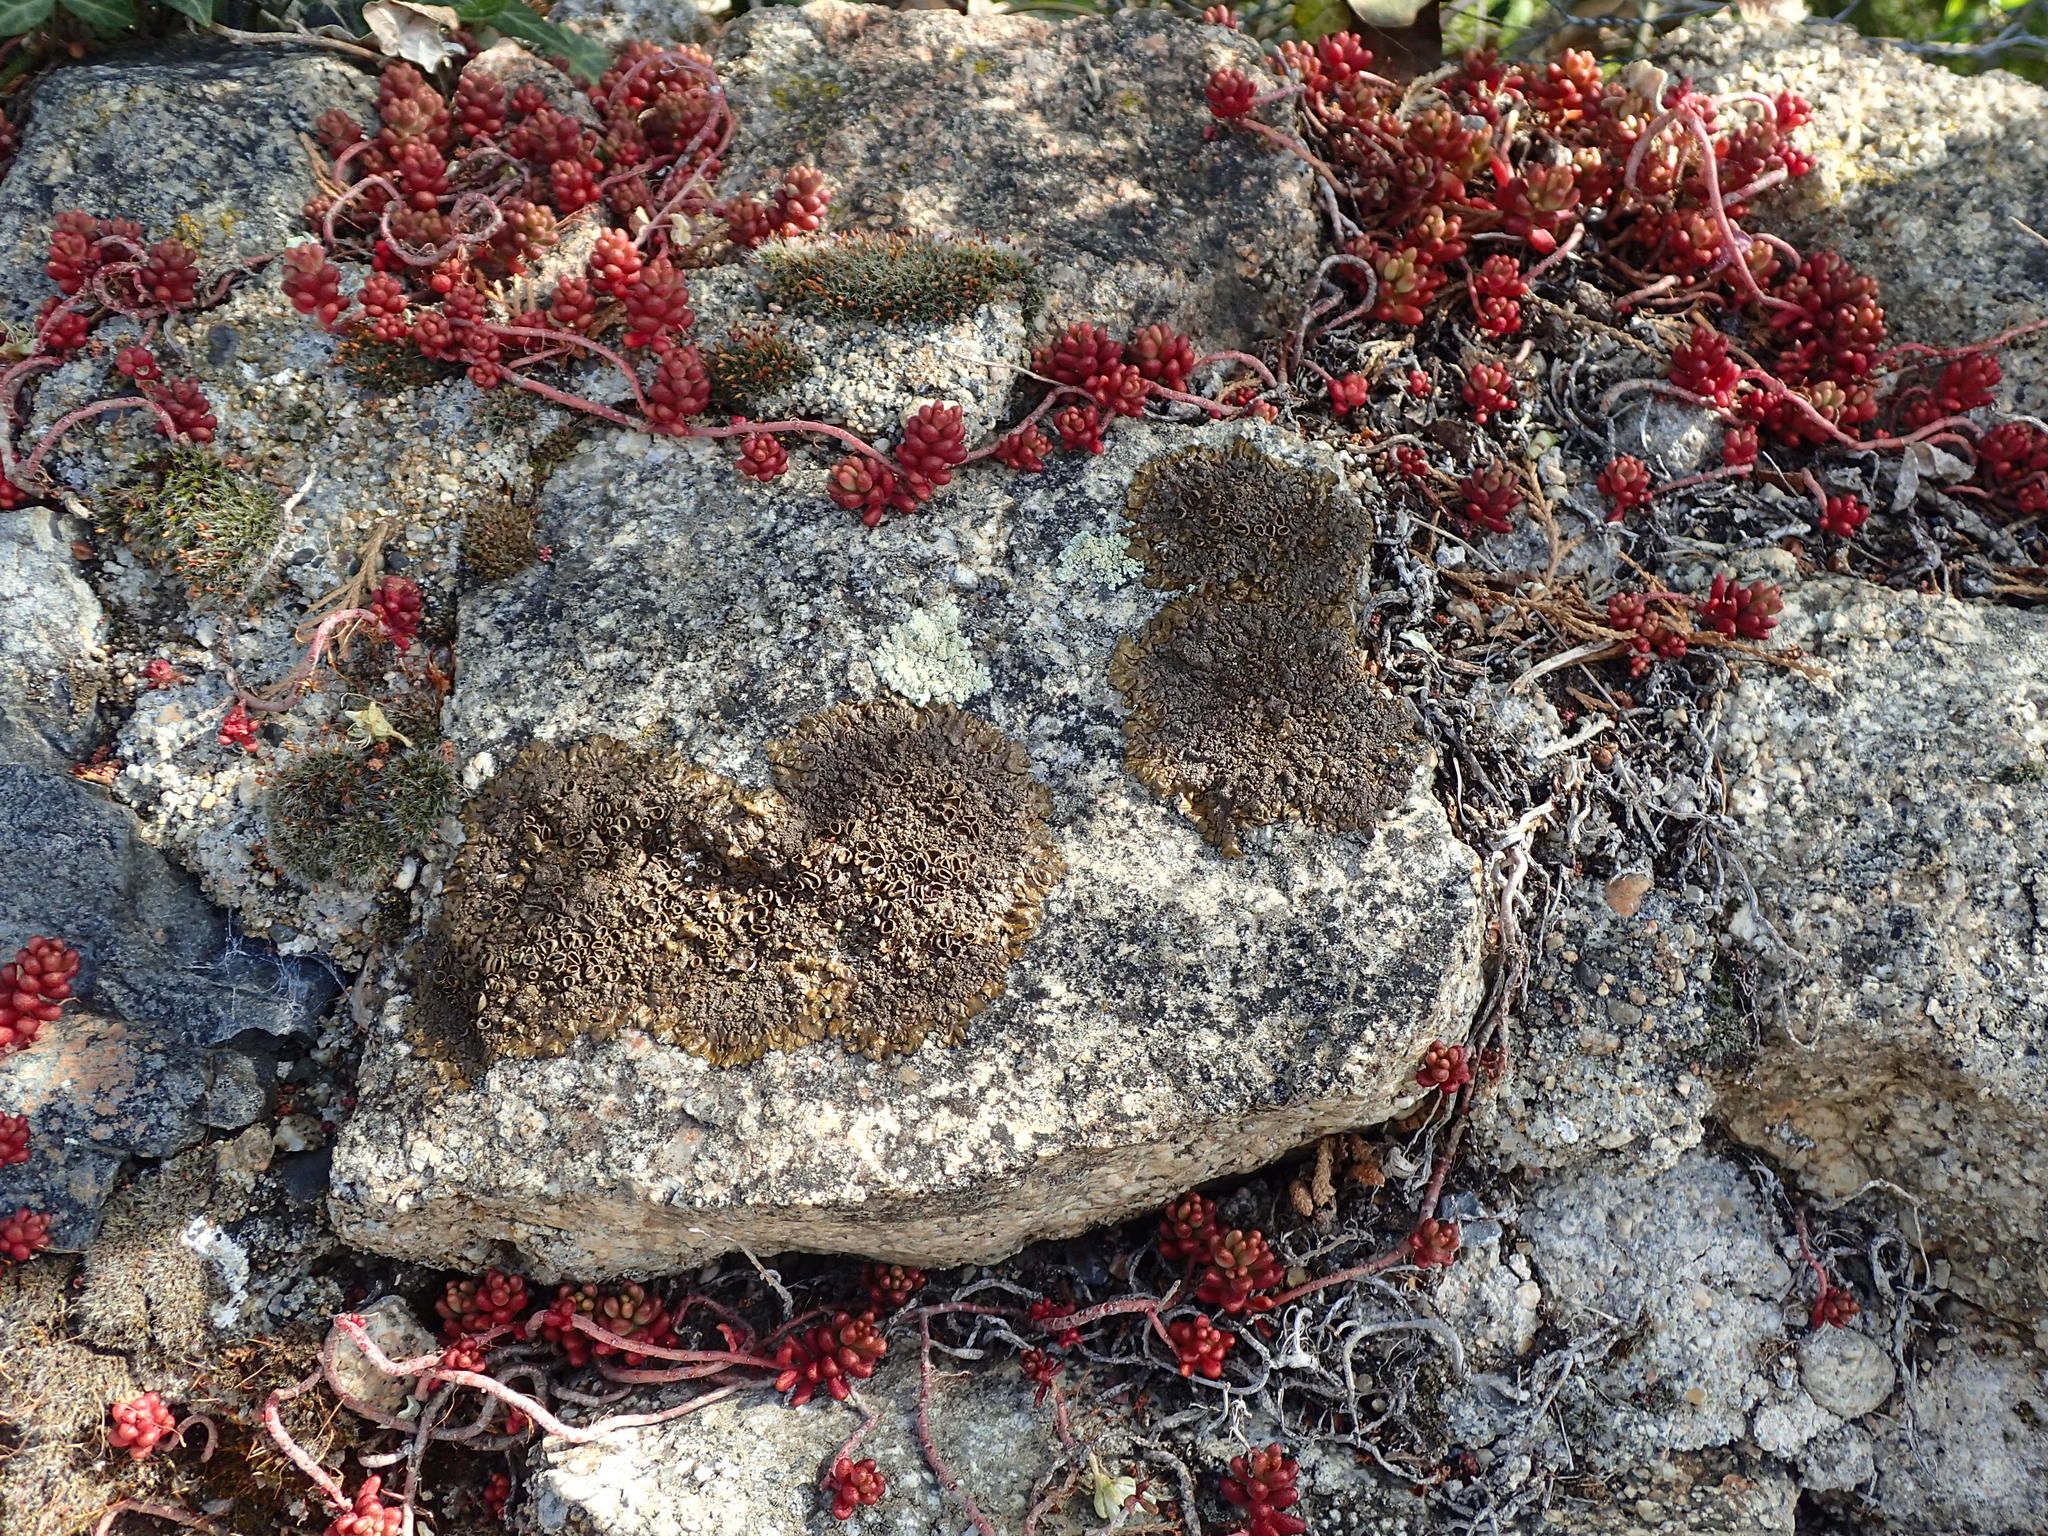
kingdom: Fungi
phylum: Ascomycota
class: Lecanoromycetes
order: Lecanorales
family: Parmeliaceae
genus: Xanthoparmelia
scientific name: Xanthoparmelia pulla
